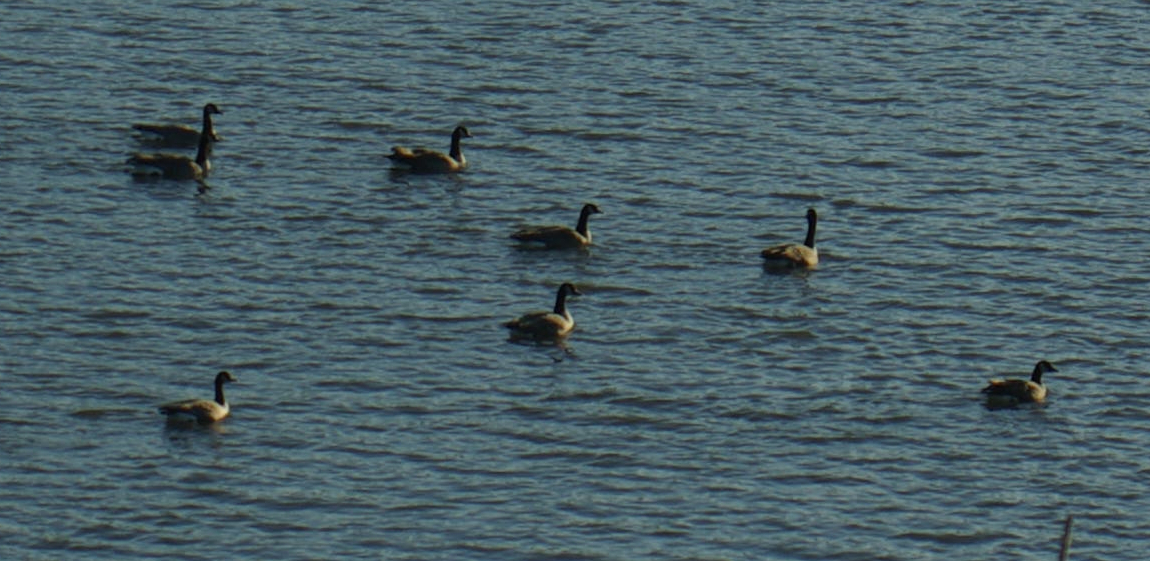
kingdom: Animalia
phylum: Chordata
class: Aves
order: Anseriformes
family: Anatidae
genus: Branta
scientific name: Branta canadensis
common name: Canada goose
